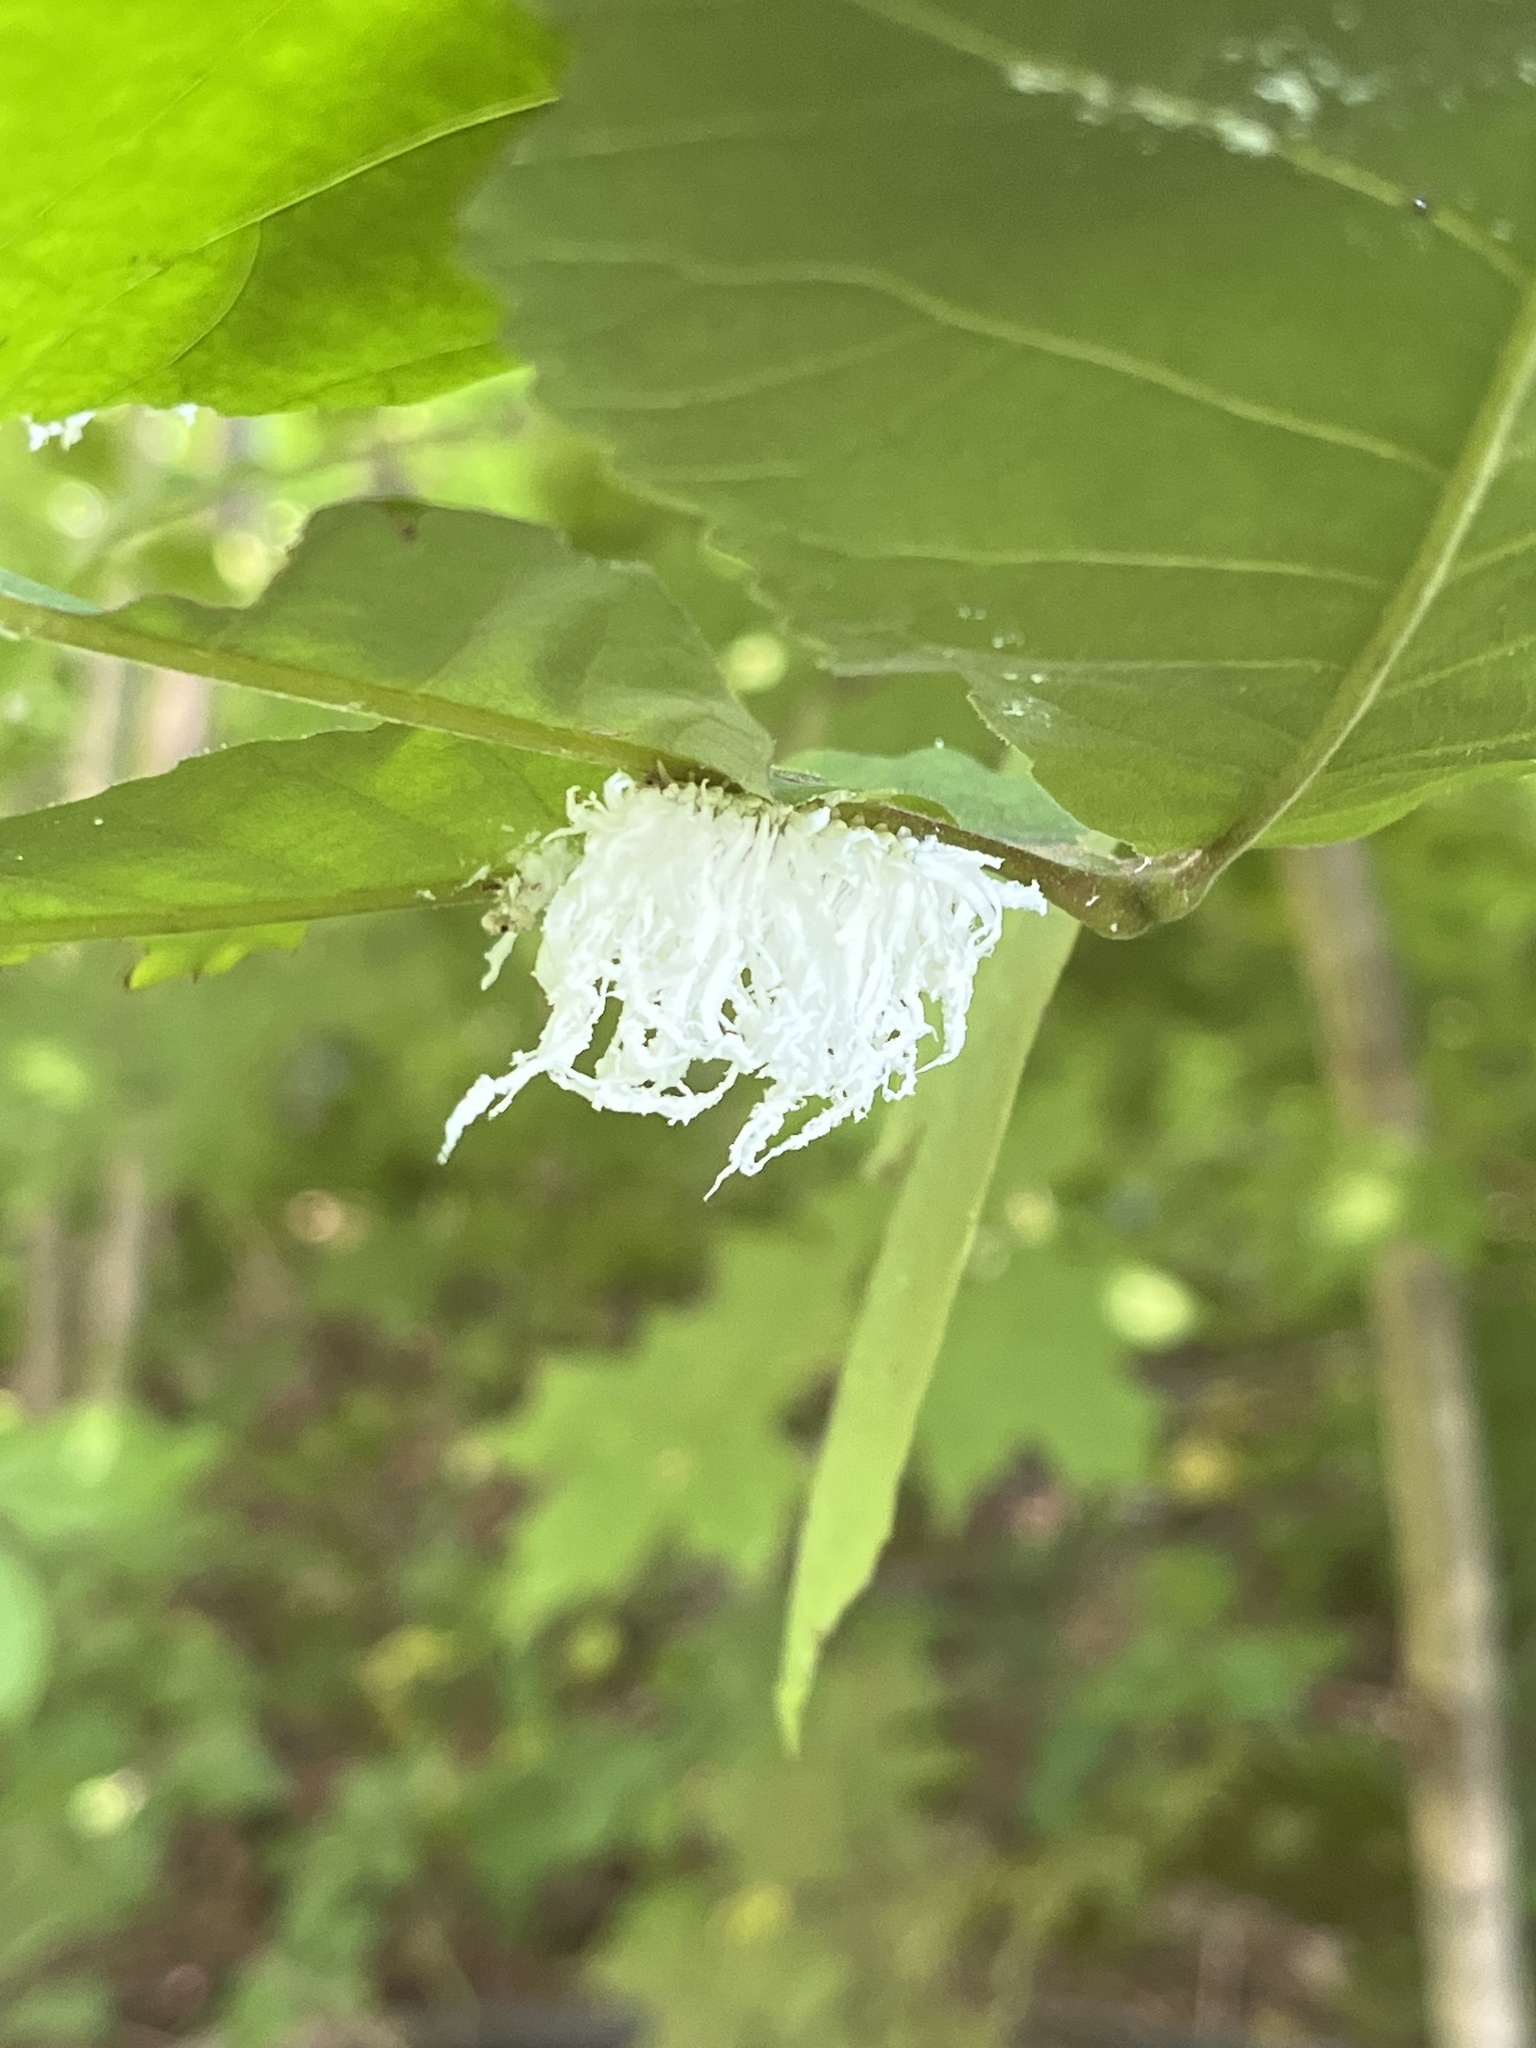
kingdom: Animalia
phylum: Arthropoda
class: Insecta
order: Hymenoptera
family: Tenthredinidae
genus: Eriocampa
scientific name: Eriocampa juglandis
